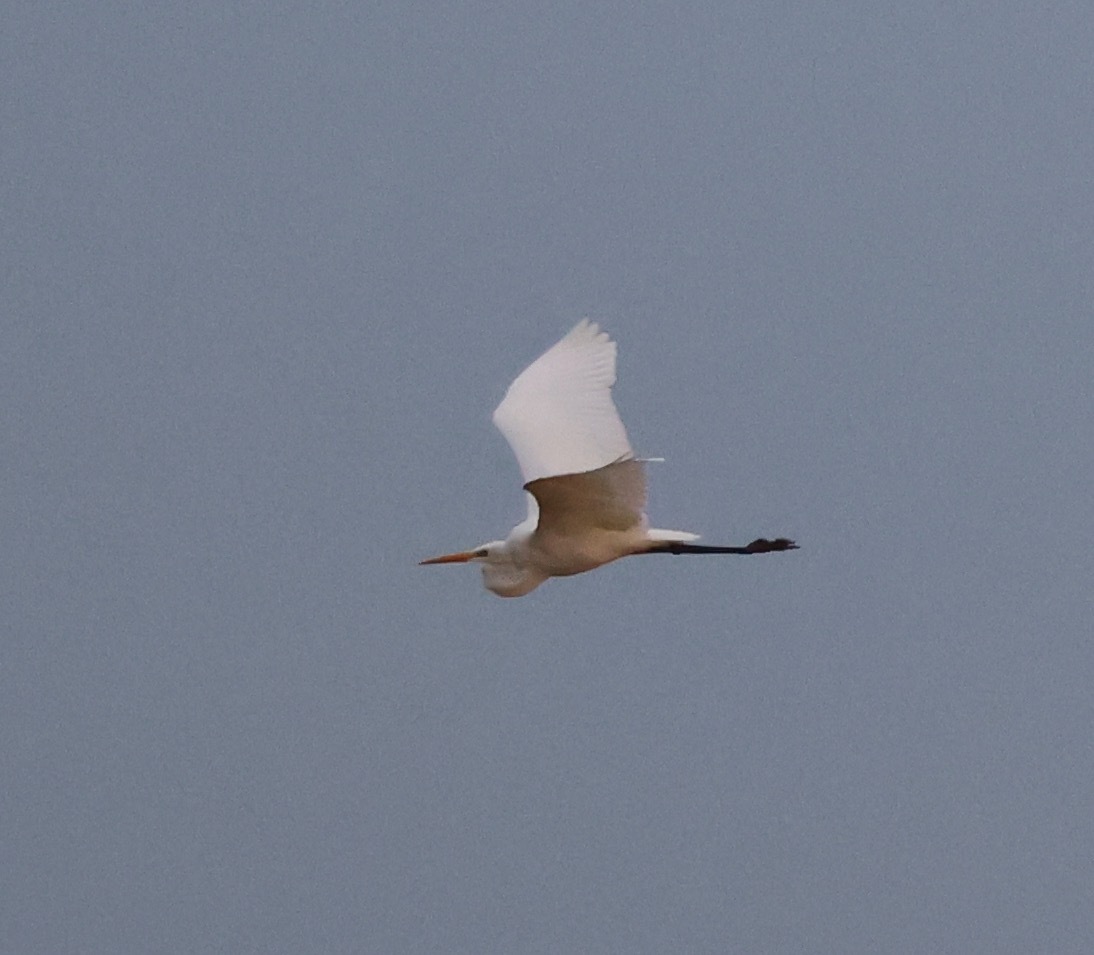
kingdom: Animalia
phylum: Chordata
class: Aves
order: Pelecaniformes
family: Ardeidae
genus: Ardea
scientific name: Ardea alba
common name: Great egret
